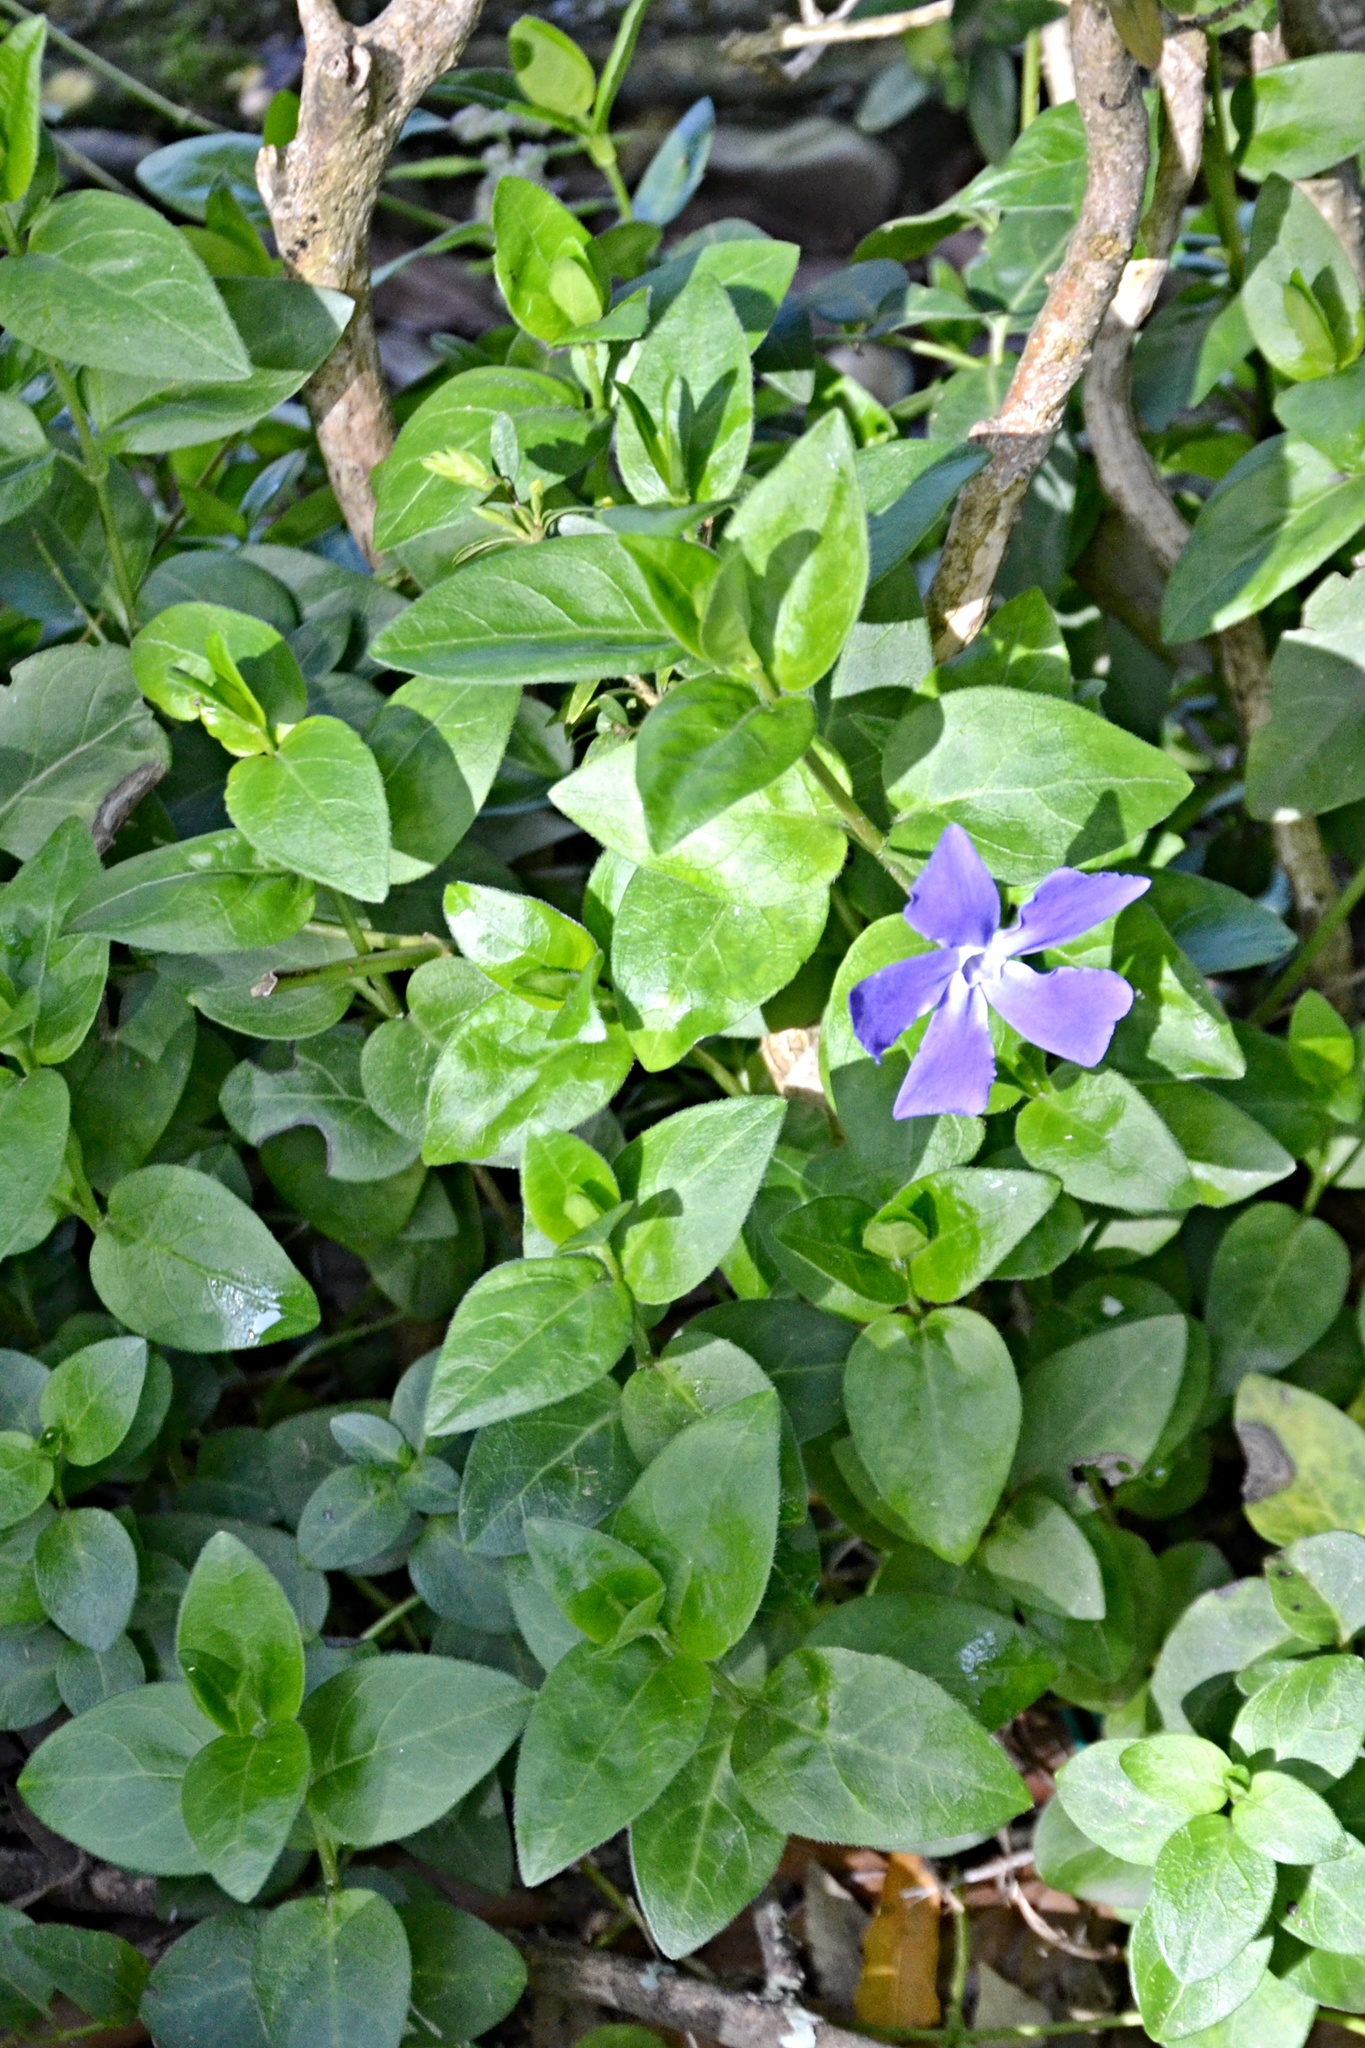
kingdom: Plantae
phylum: Tracheophyta
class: Magnoliopsida
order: Gentianales
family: Apocynaceae
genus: Vinca
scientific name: Vinca major
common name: Greater periwinkle
